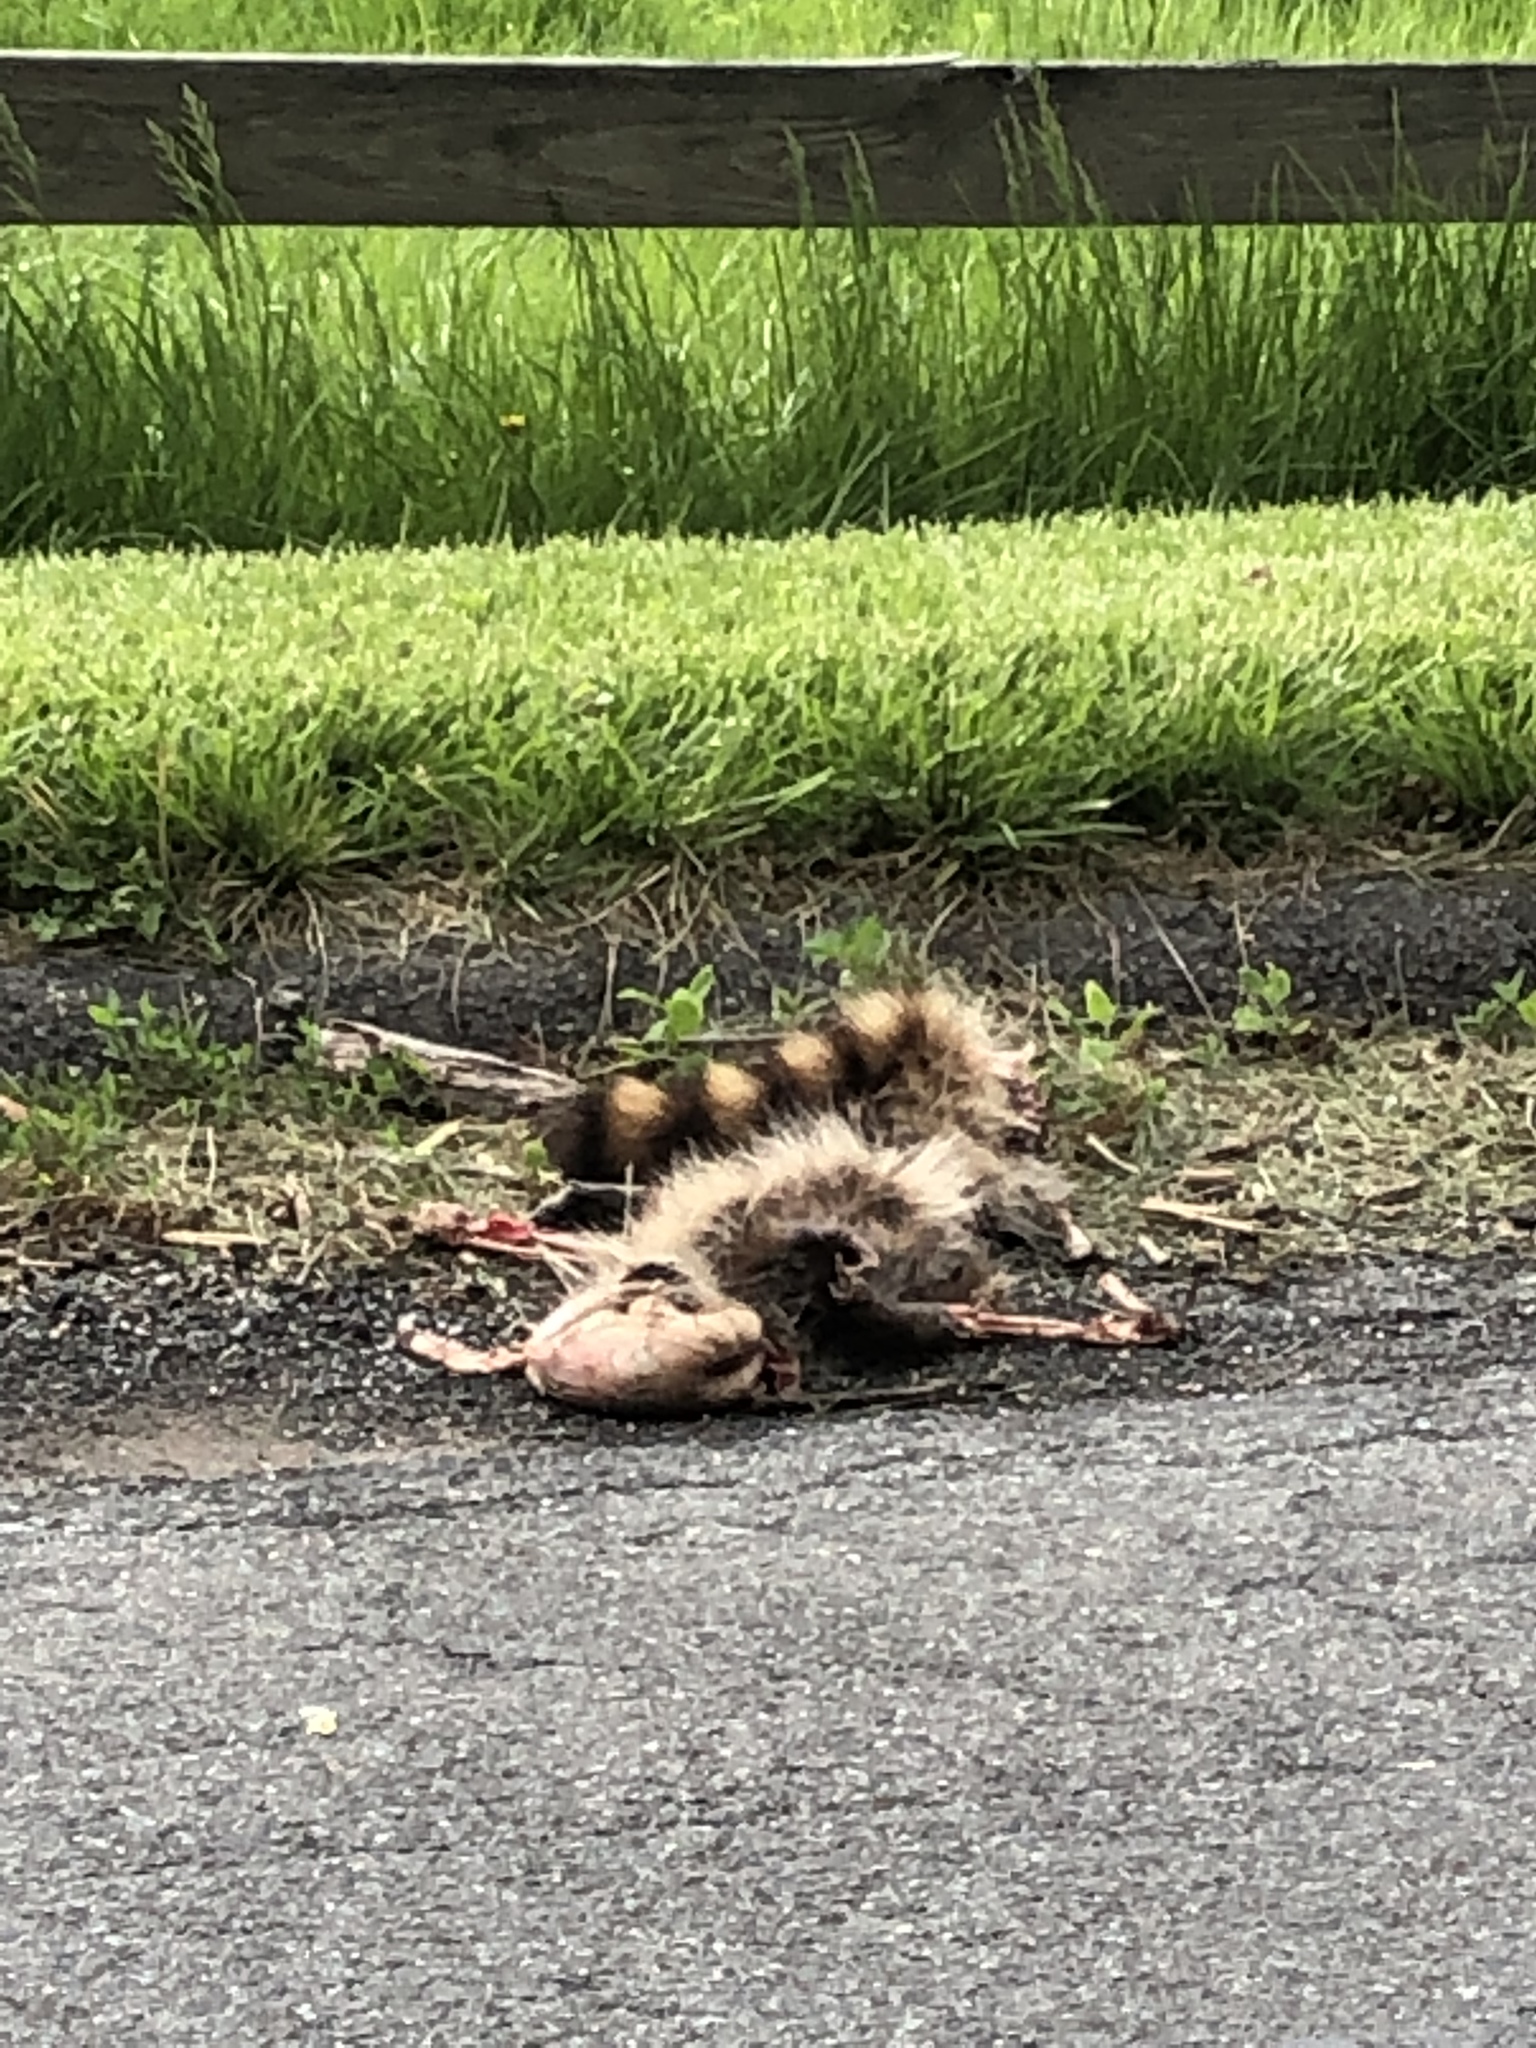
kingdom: Animalia
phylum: Chordata
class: Mammalia
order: Carnivora
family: Procyonidae
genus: Procyon
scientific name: Procyon lotor
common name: Raccoon
